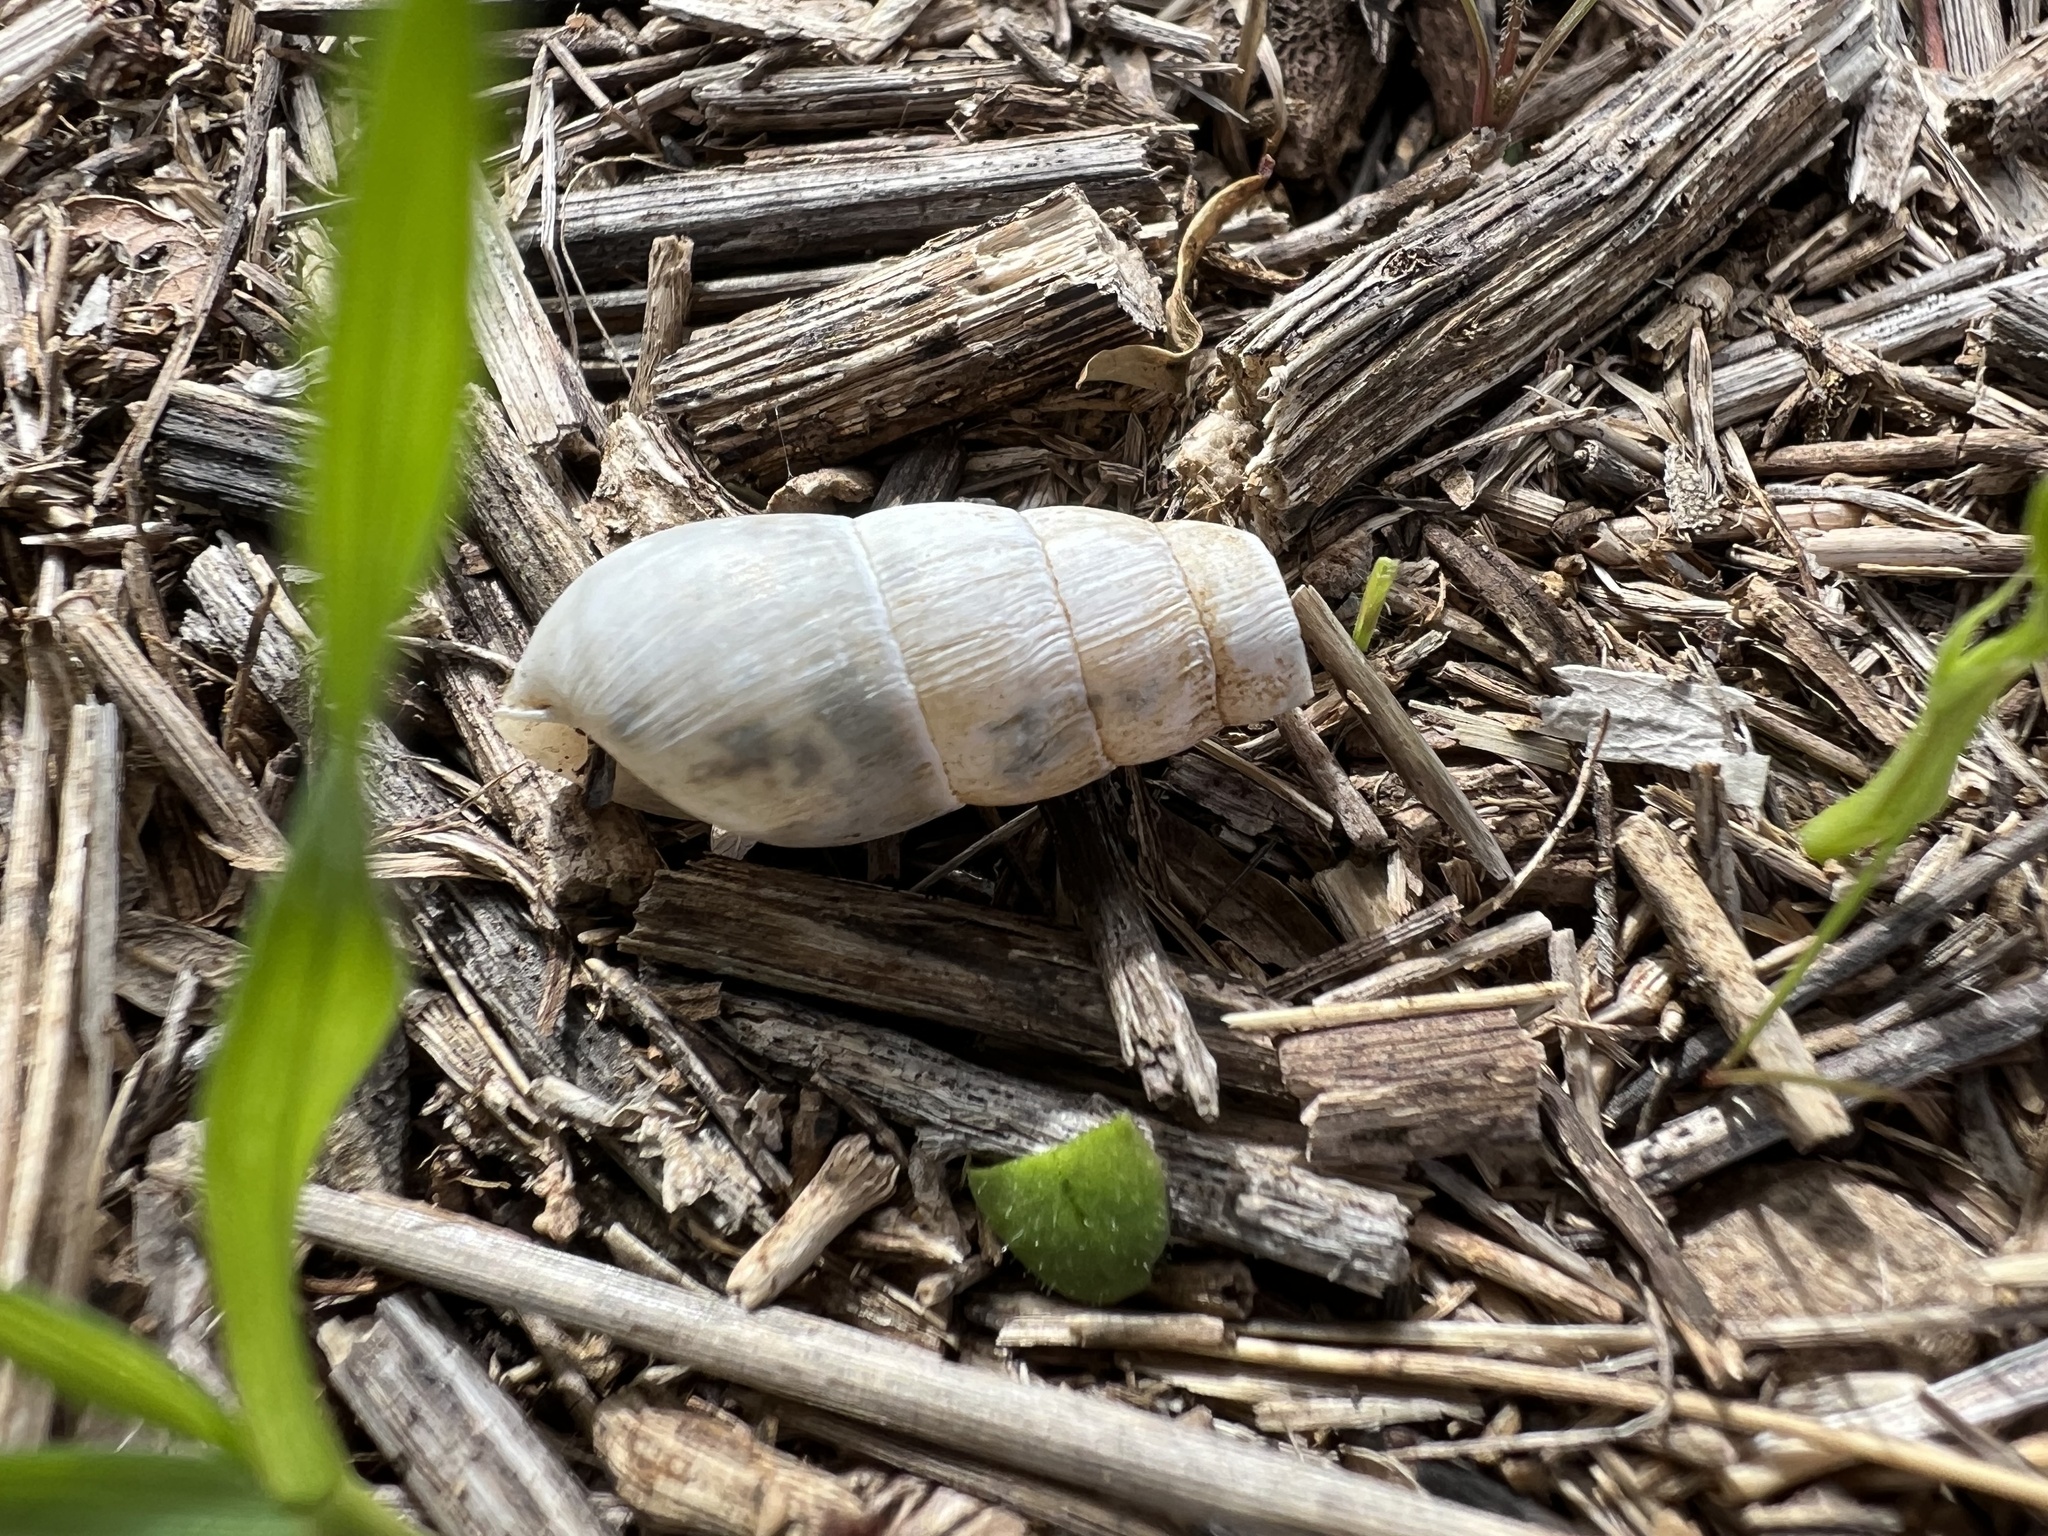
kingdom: Animalia
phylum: Mollusca
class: Gastropoda
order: Stylommatophora
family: Achatinidae
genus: Rumina
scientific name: Rumina decollata
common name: Decollate snail
